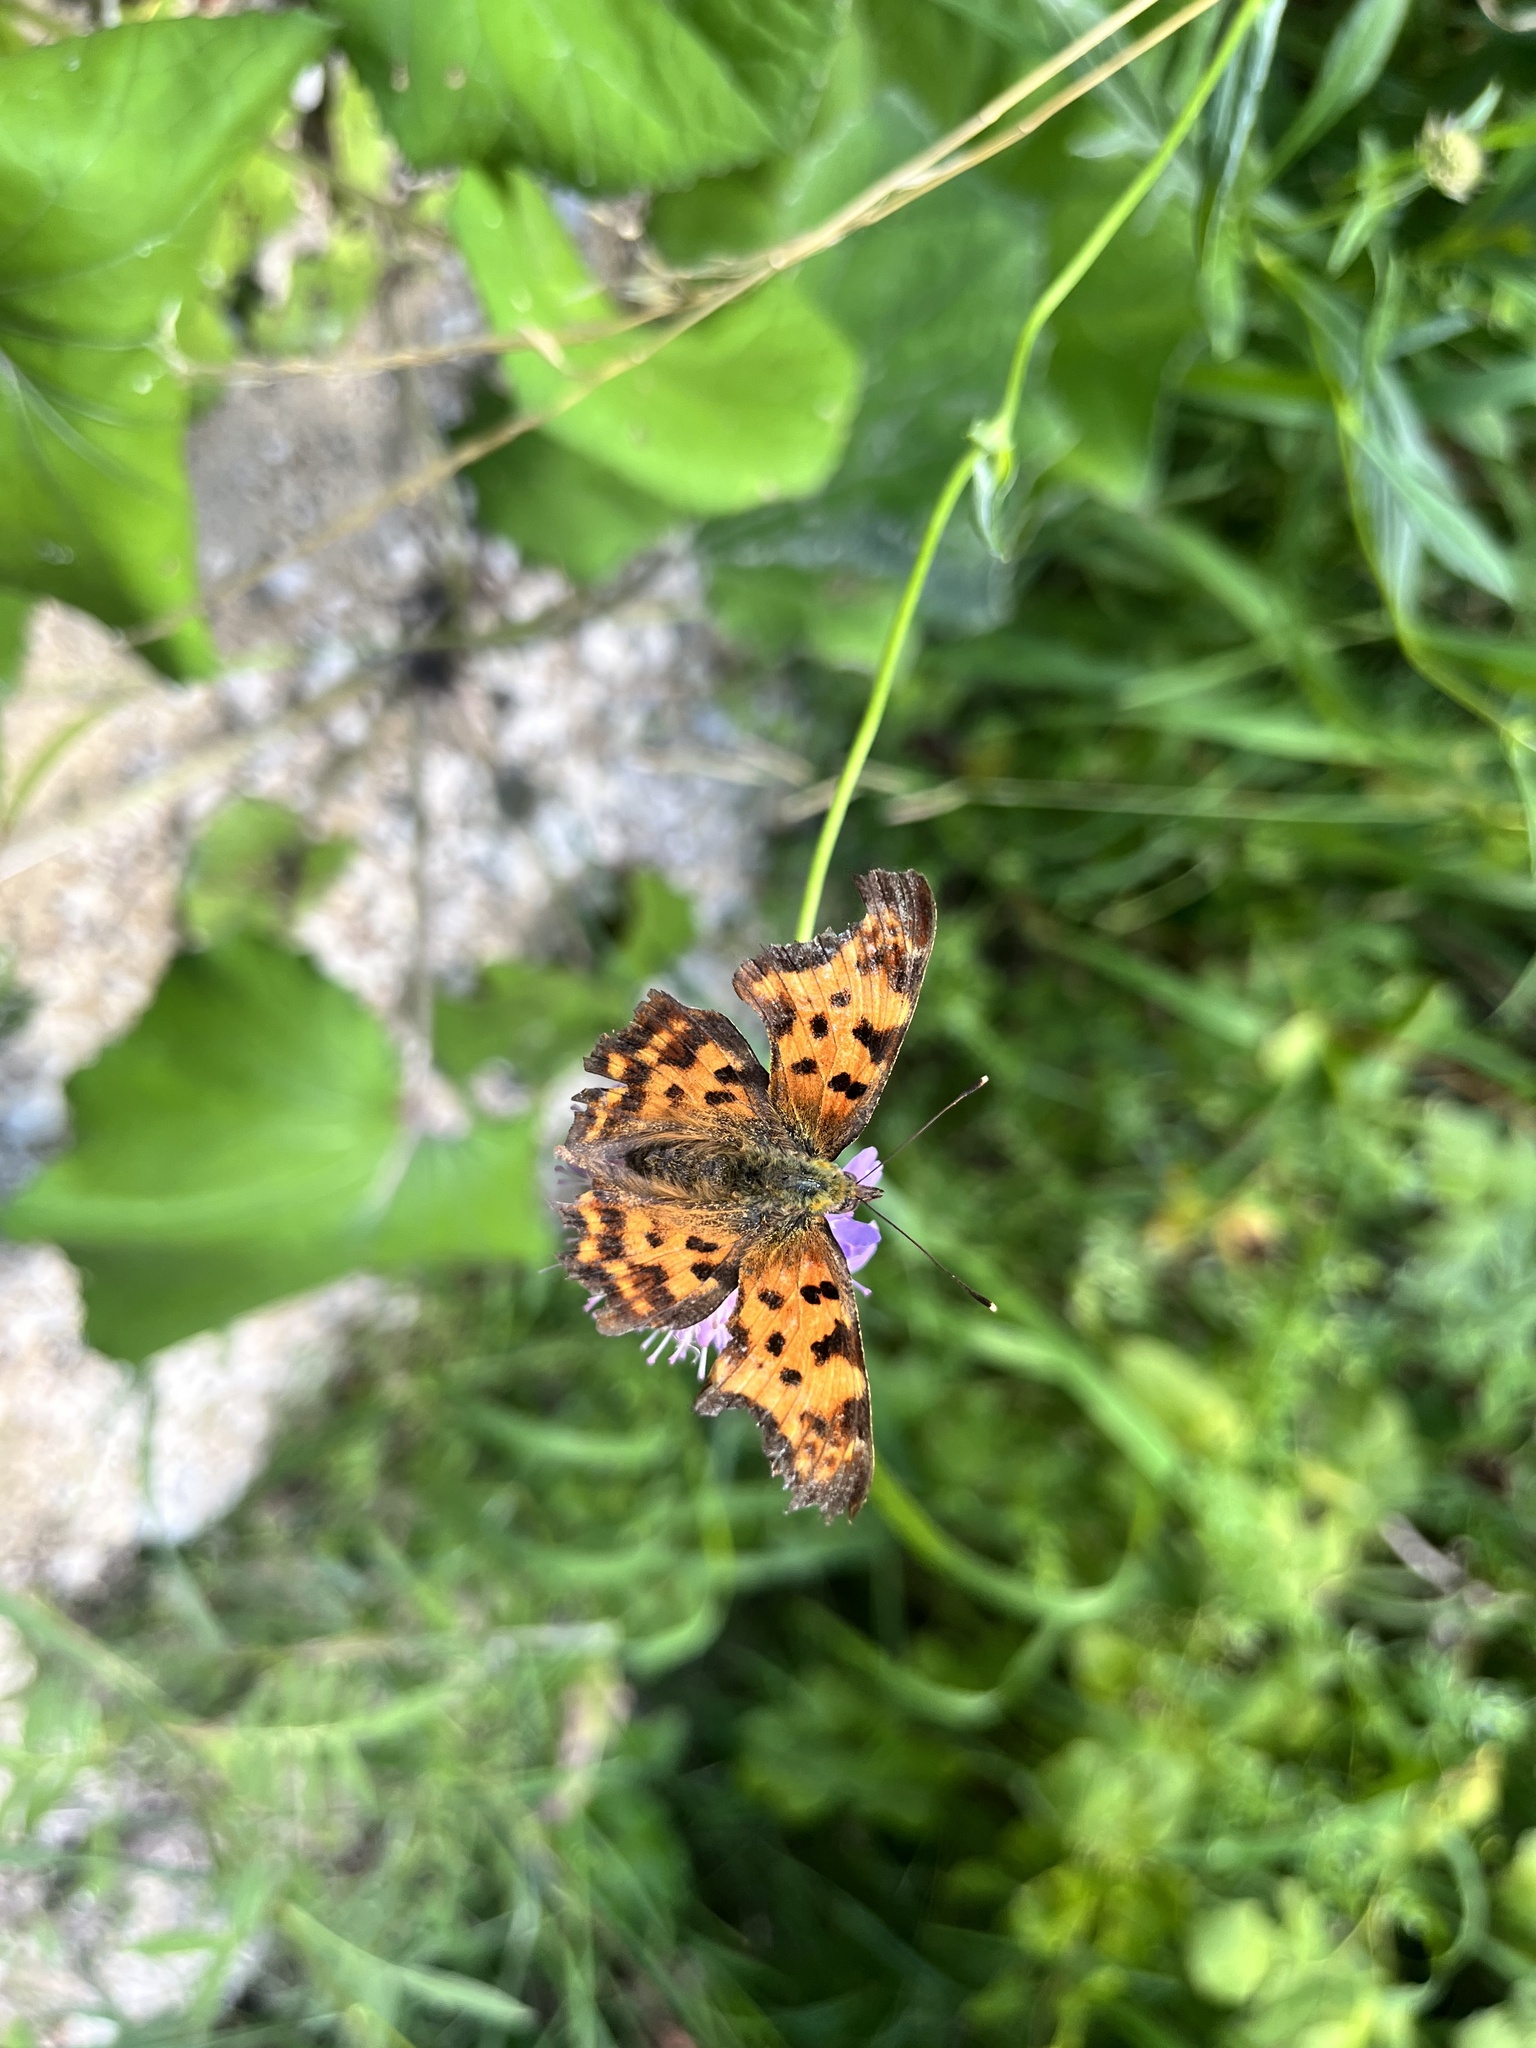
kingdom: Animalia
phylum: Arthropoda
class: Insecta
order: Lepidoptera
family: Nymphalidae
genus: Polygonia
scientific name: Polygonia c-album
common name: Comma
